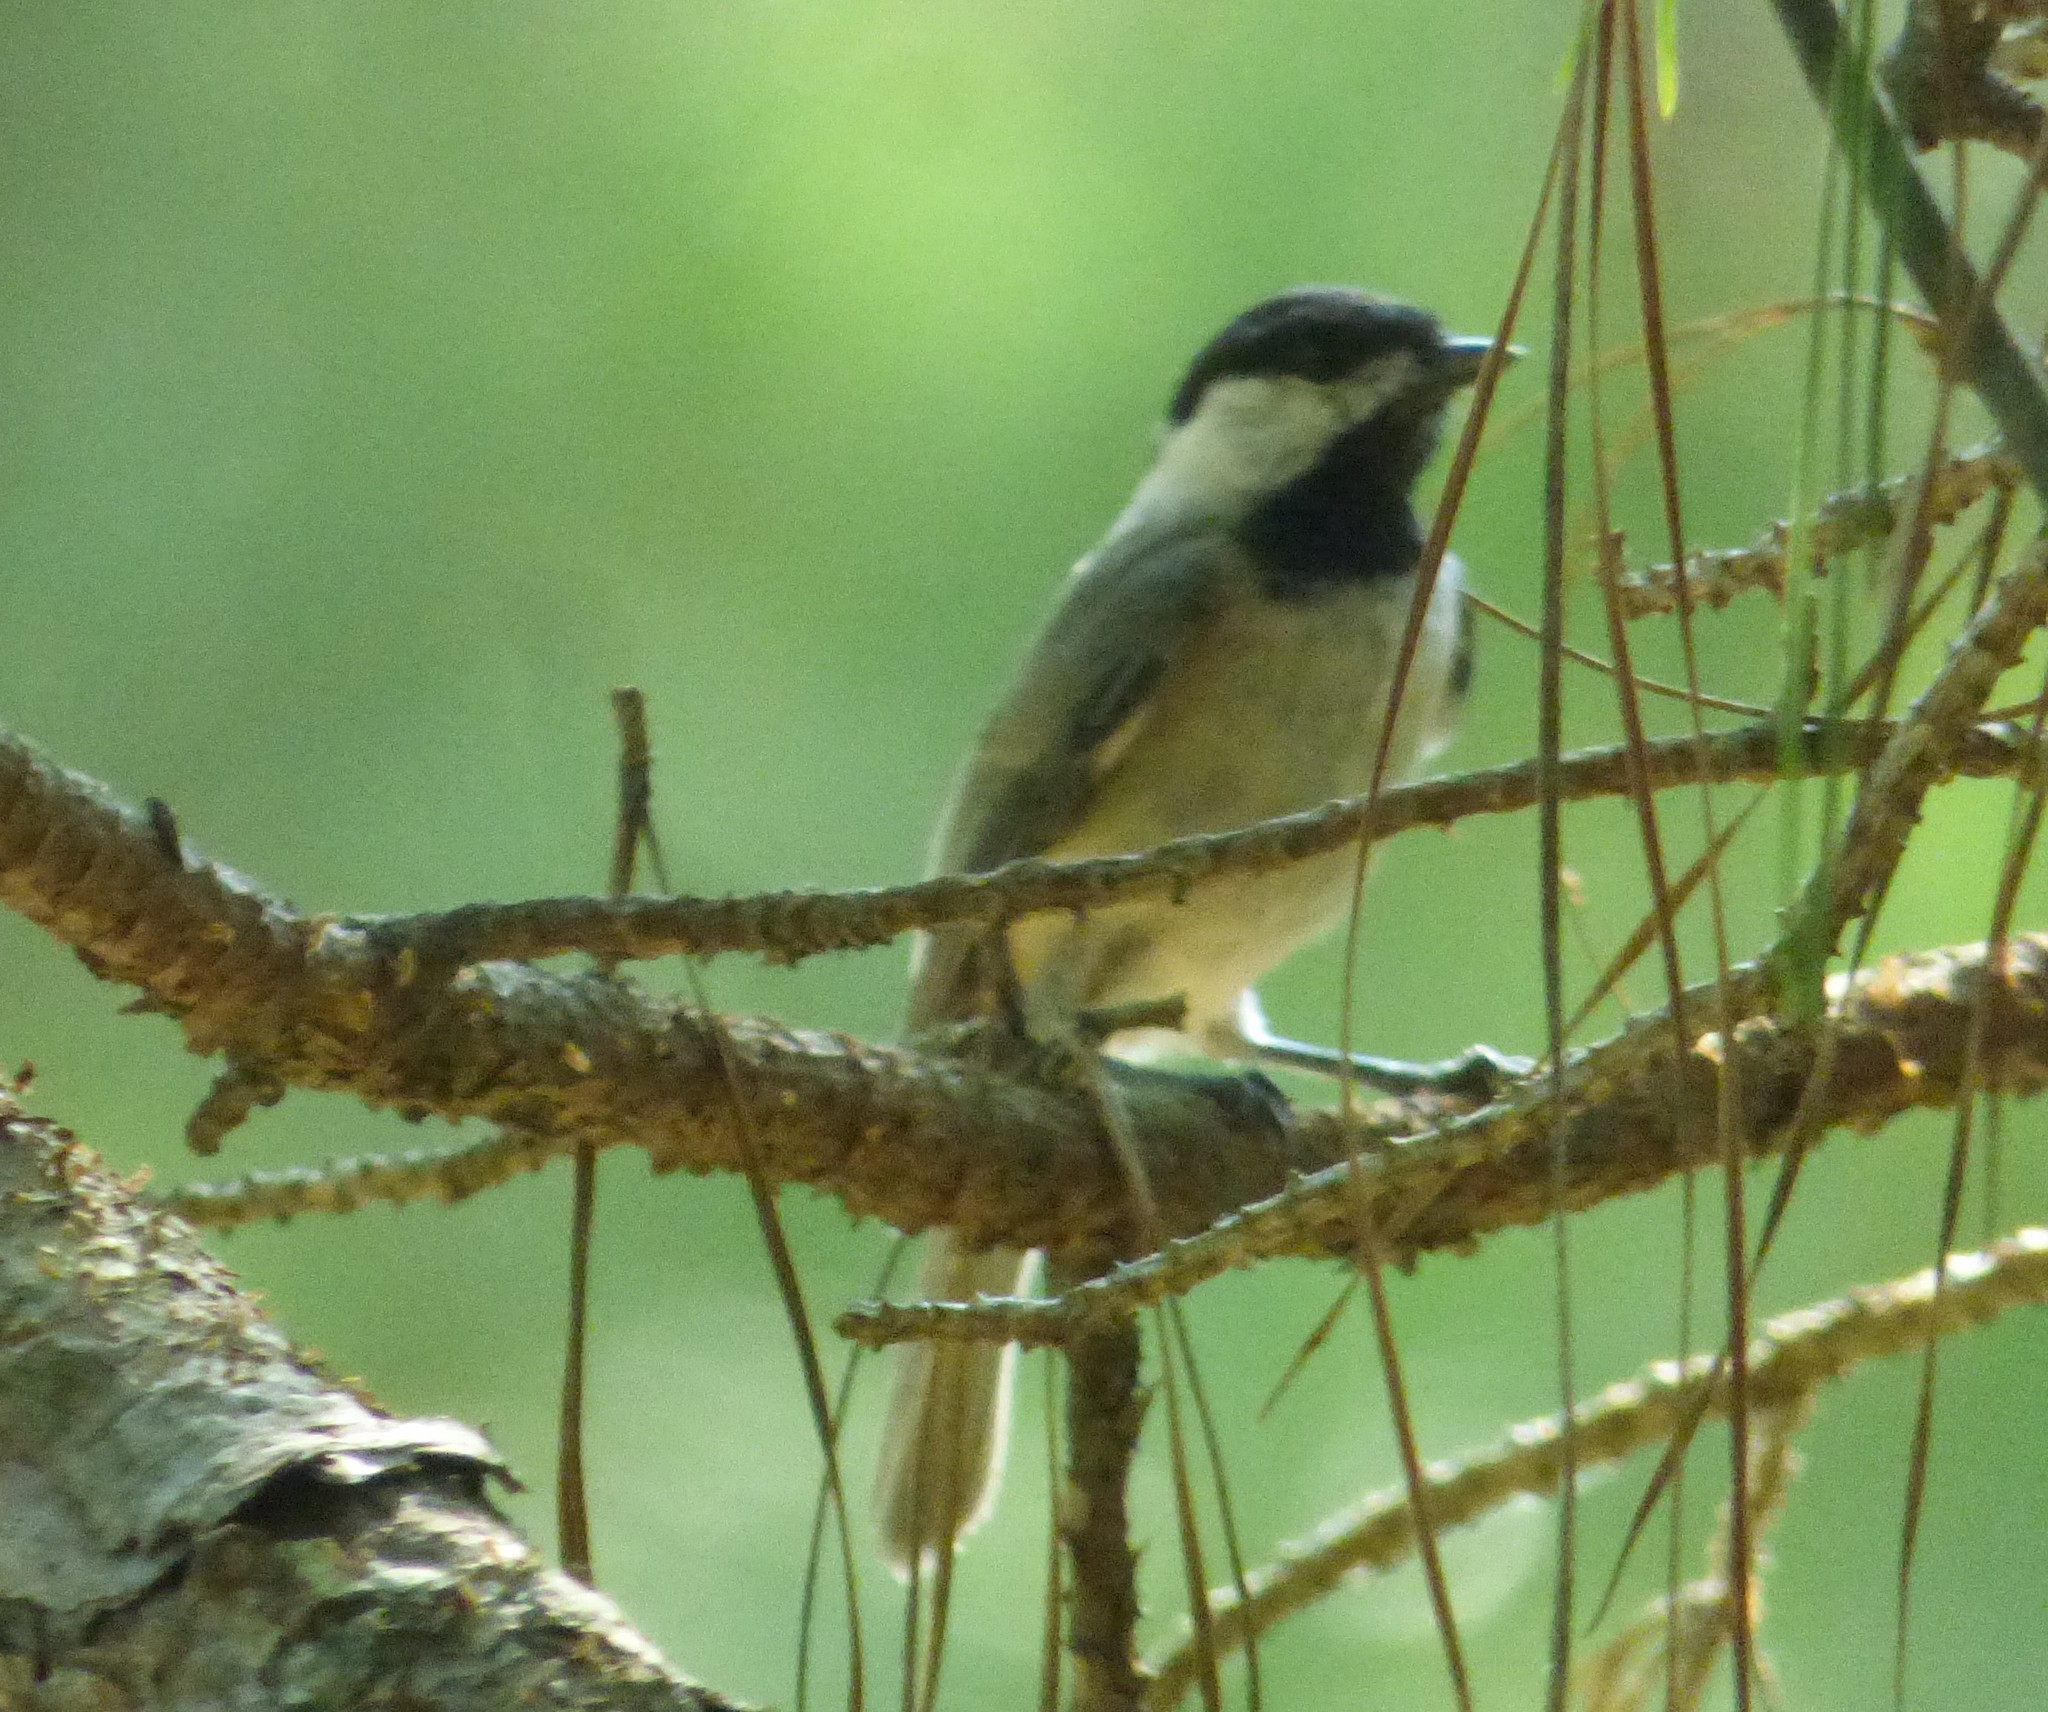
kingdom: Animalia
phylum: Chordata
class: Aves
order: Passeriformes
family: Paridae
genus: Poecile
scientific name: Poecile carolinensis
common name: Carolina chickadee
